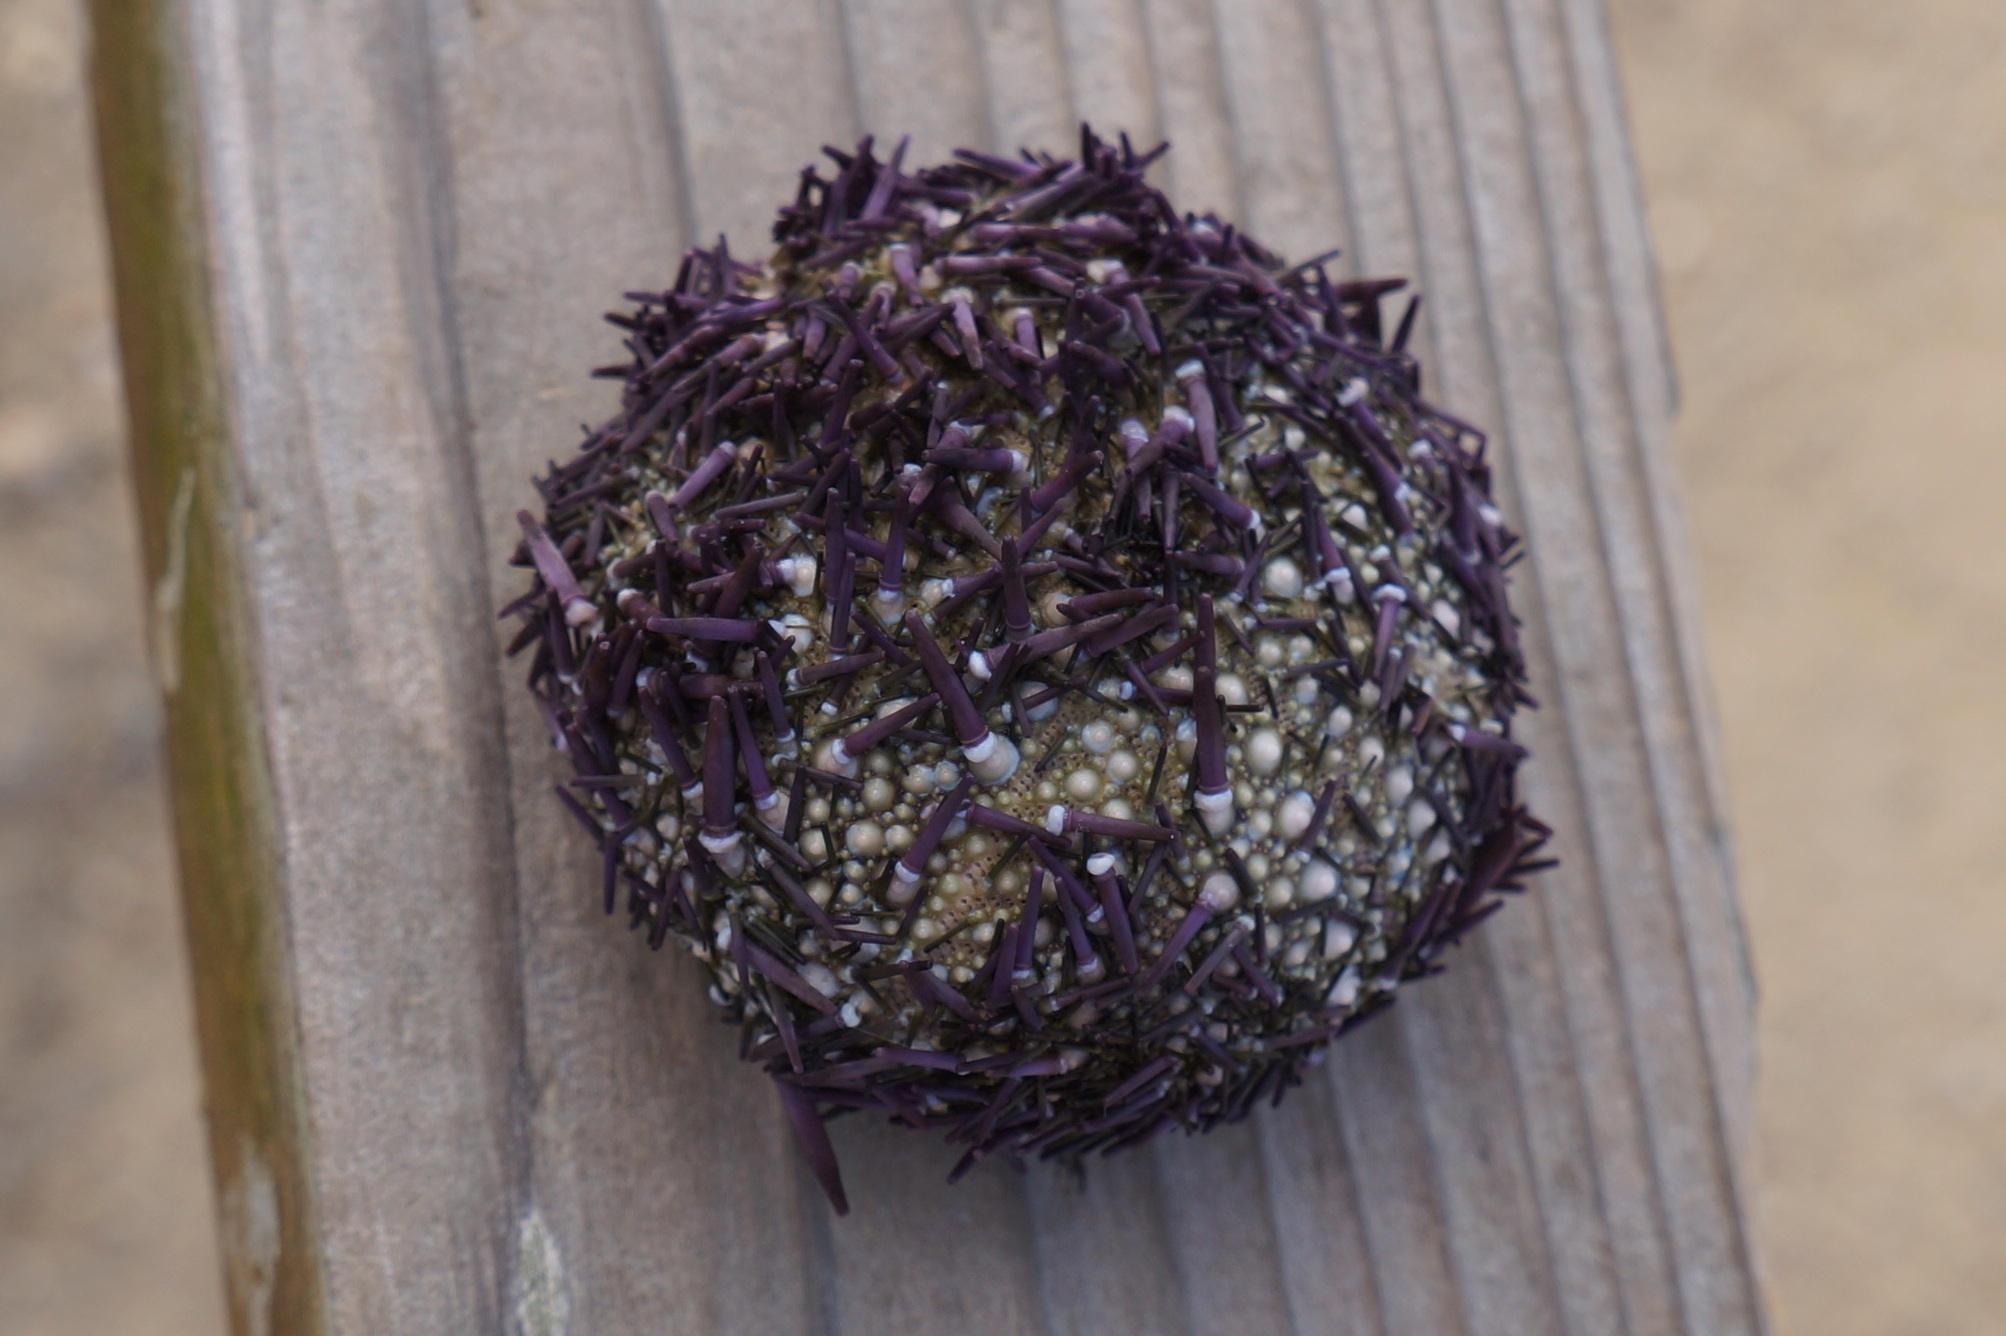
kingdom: Animalia
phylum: Echinodermata
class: Echinoidea
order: Camarodonta
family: Strongylocentrotidae
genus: Strongylocentrotus
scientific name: Strongylocentrotus purpuratus
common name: Purple sea urchin
